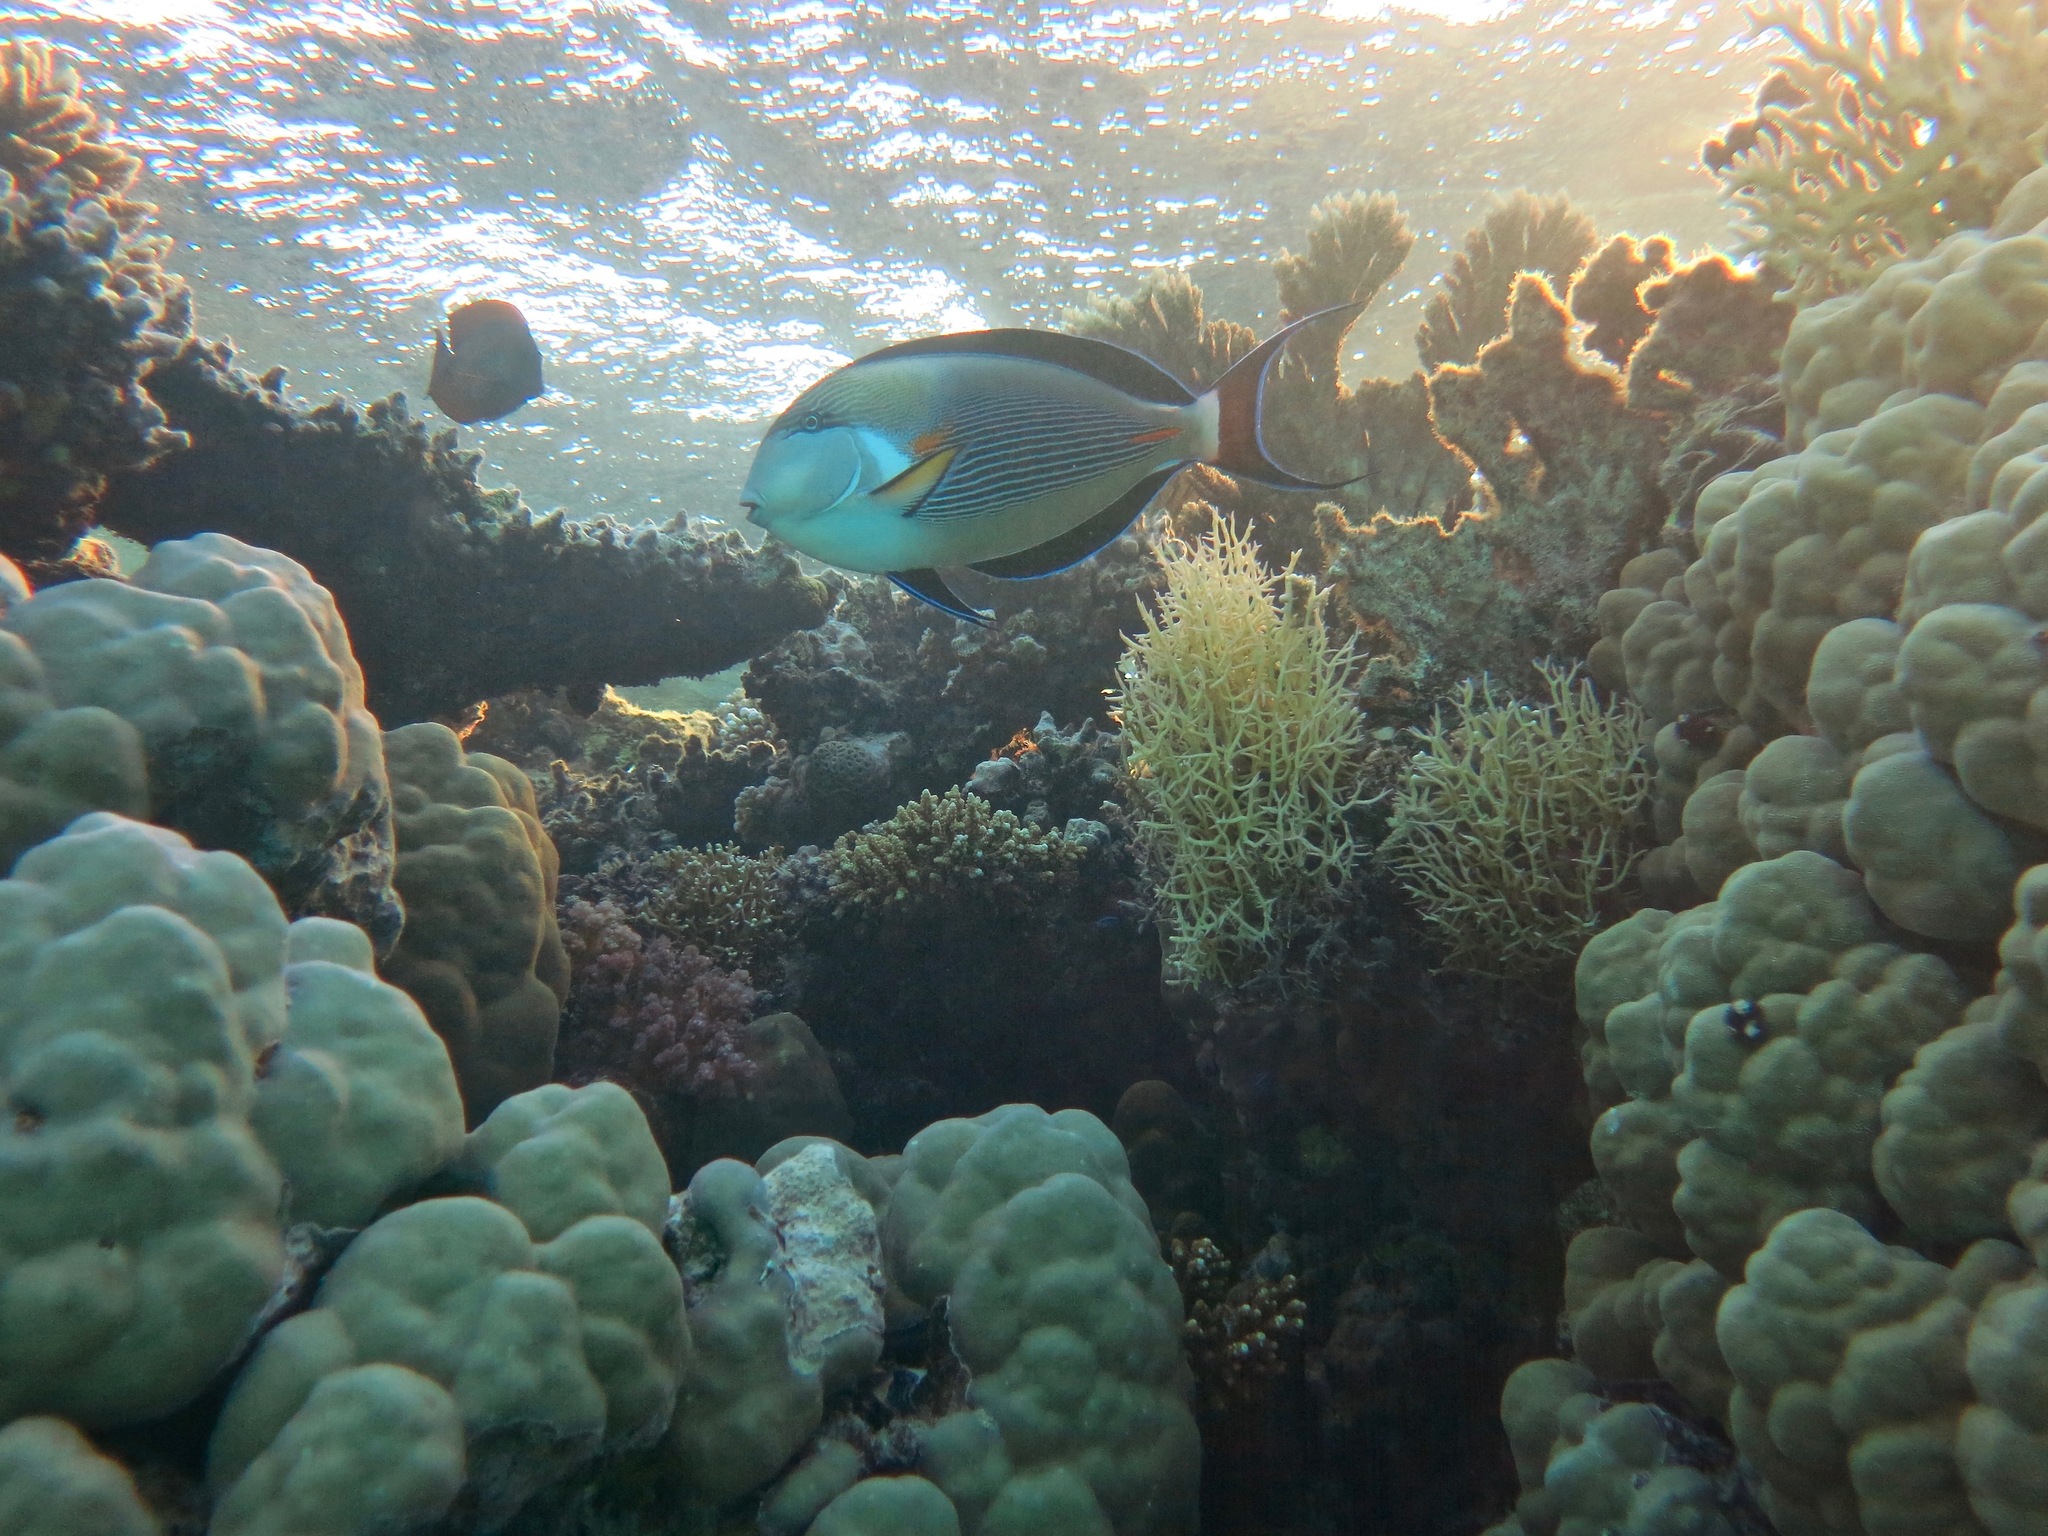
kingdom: Animalia
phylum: Chordata
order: Perciformes
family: Acanthuridae
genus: Acanthurus
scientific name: Acanthurus sohal
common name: Red sea surgeonfish
